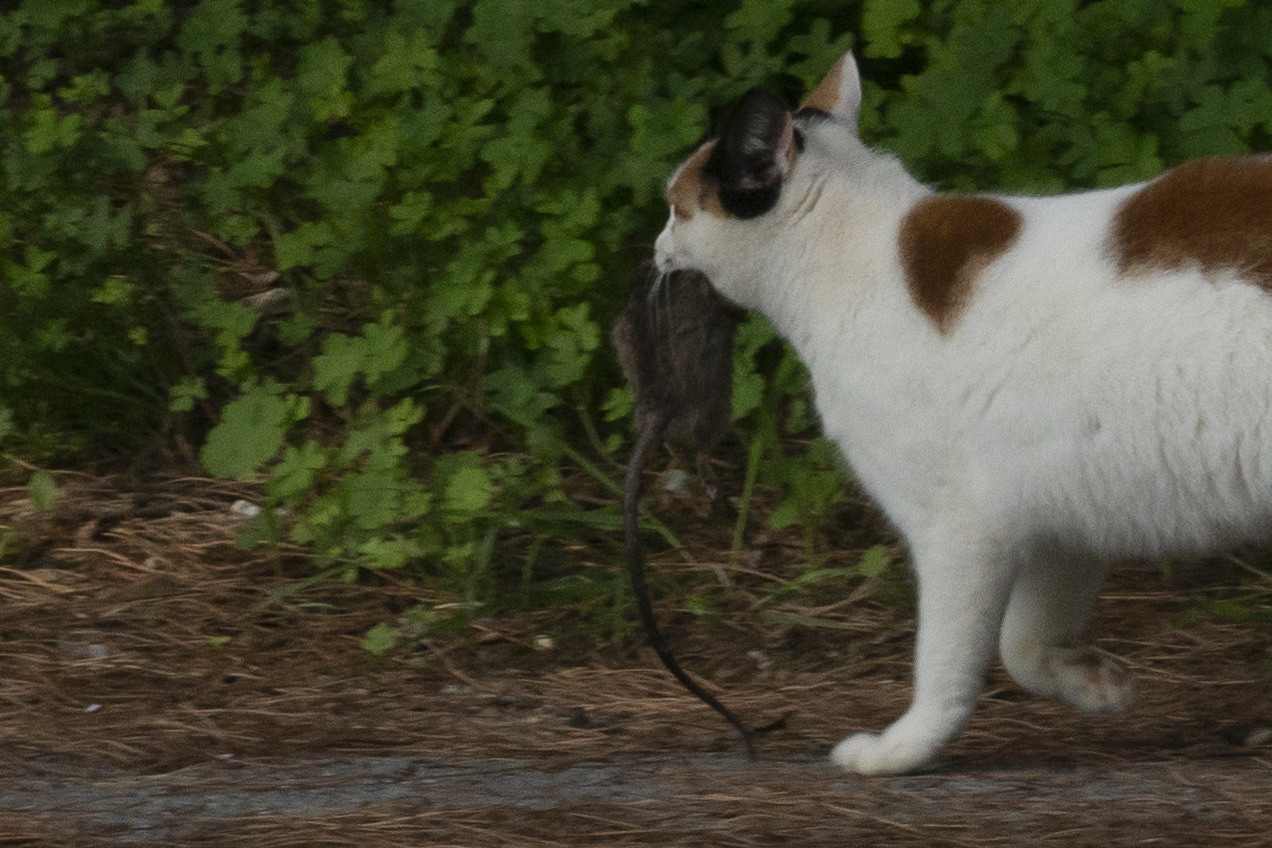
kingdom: Animalia
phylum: Chordata
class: Mammalia
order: Rodentia
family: Muridae
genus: Rattus
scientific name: Rattus rattus
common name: Black rat
